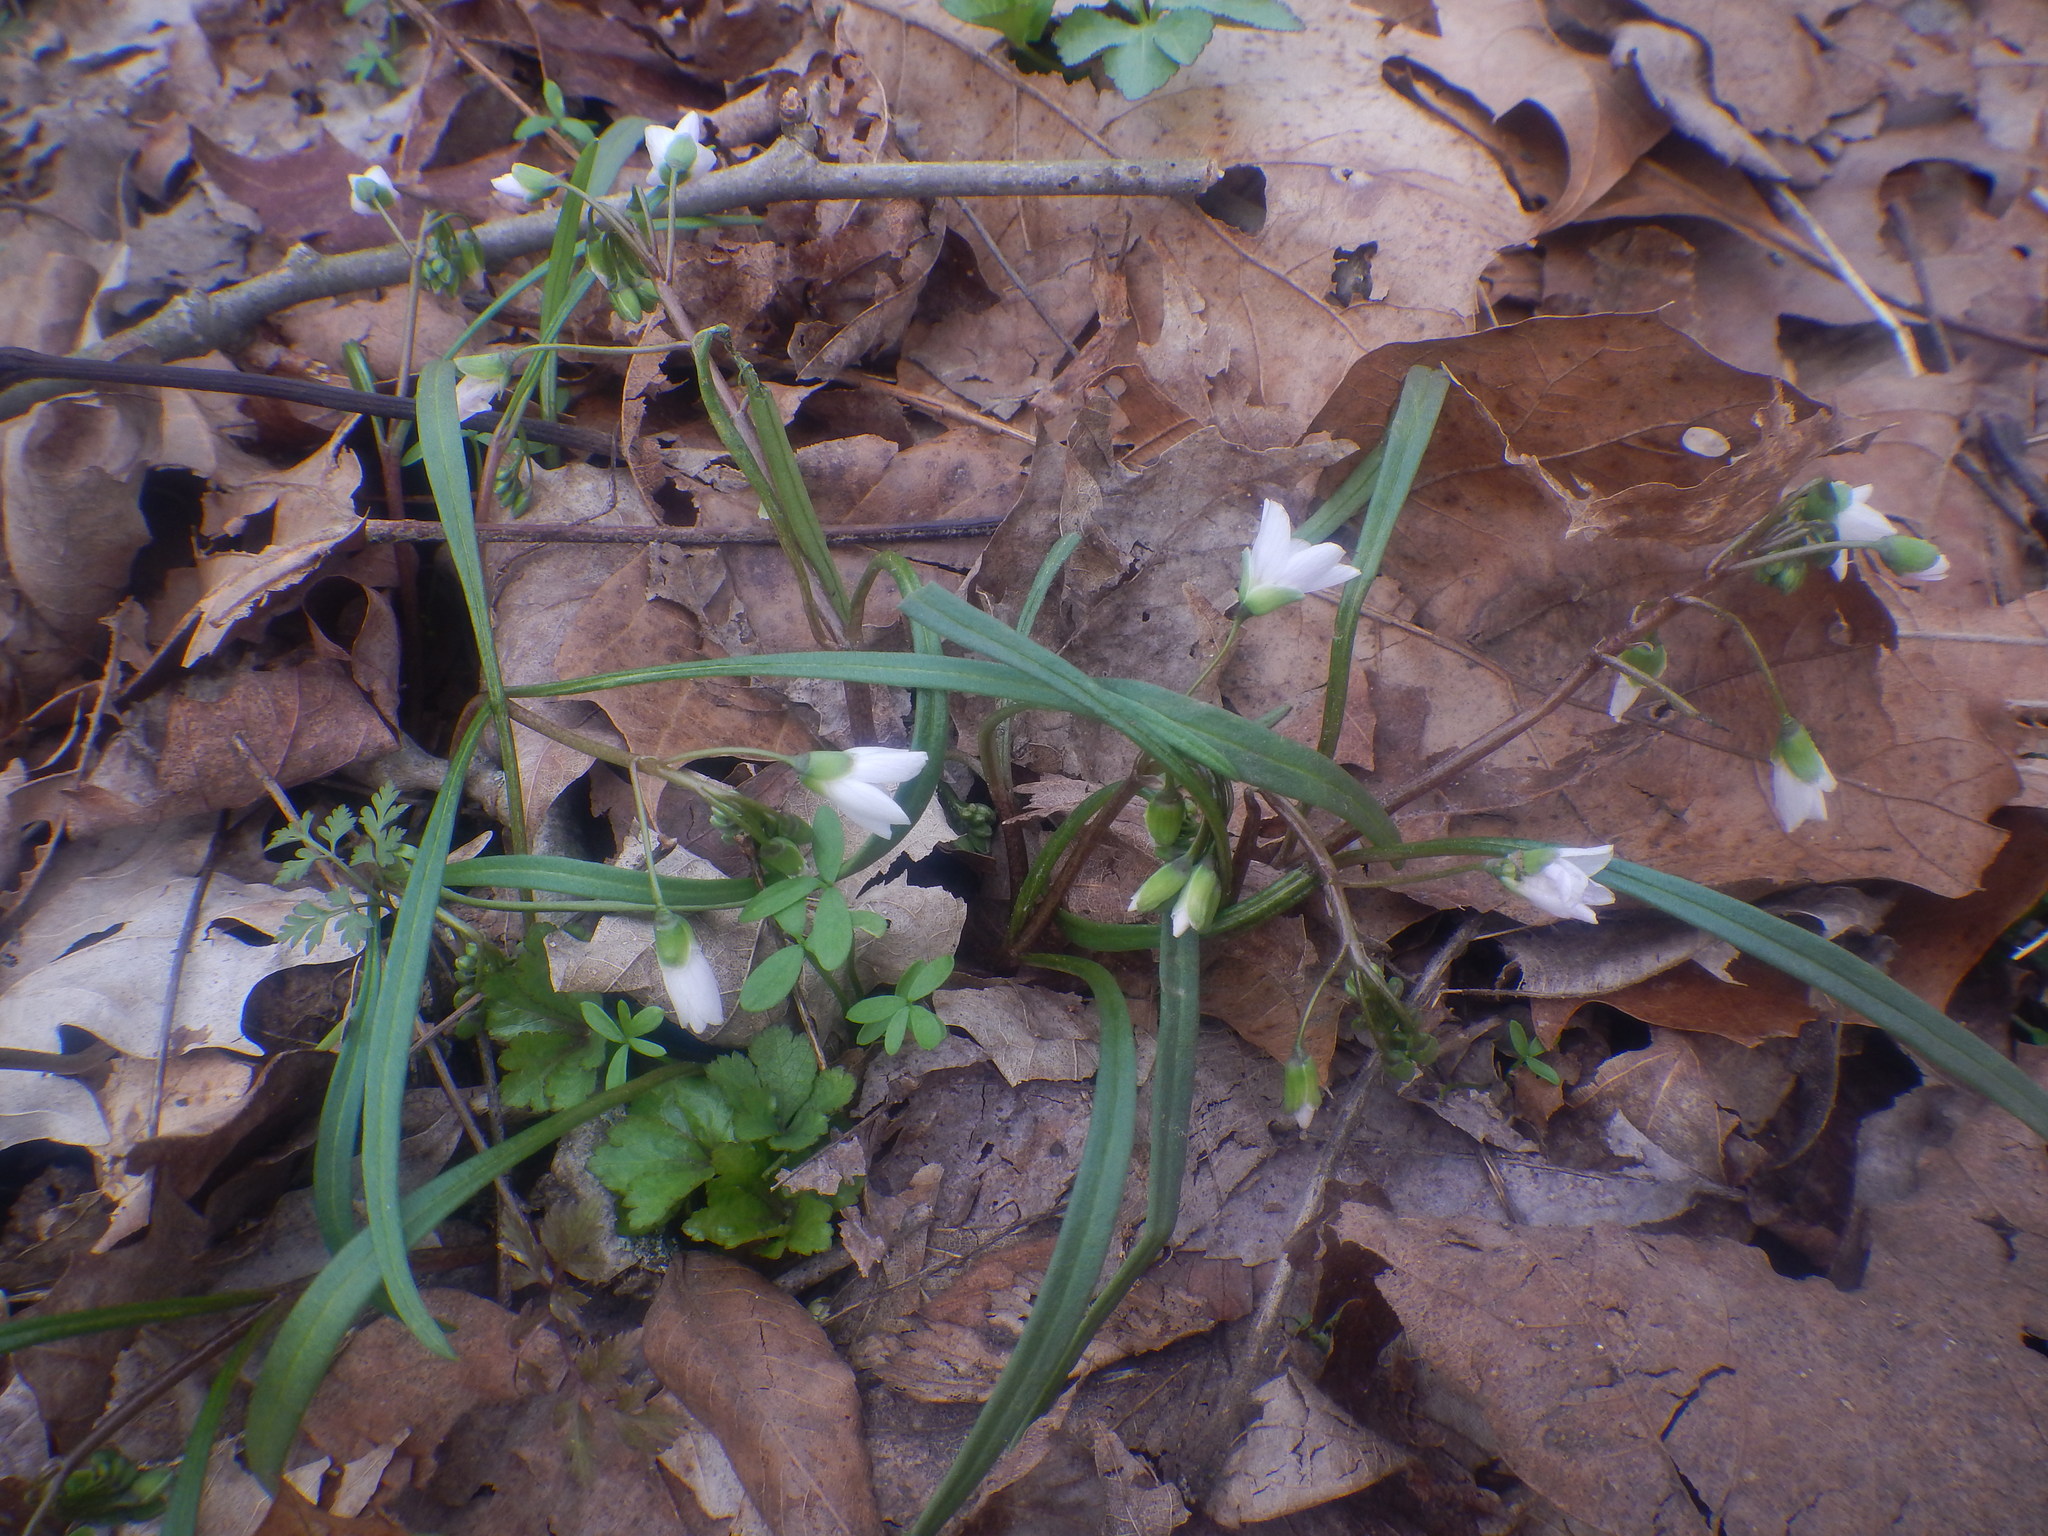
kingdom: Plantae
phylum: Tracheophyta
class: Magnoliopsida
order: Caryophyllales
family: Montiaceae
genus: Claytonia
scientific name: Claytonia virginica
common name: Virginia springbeauty
